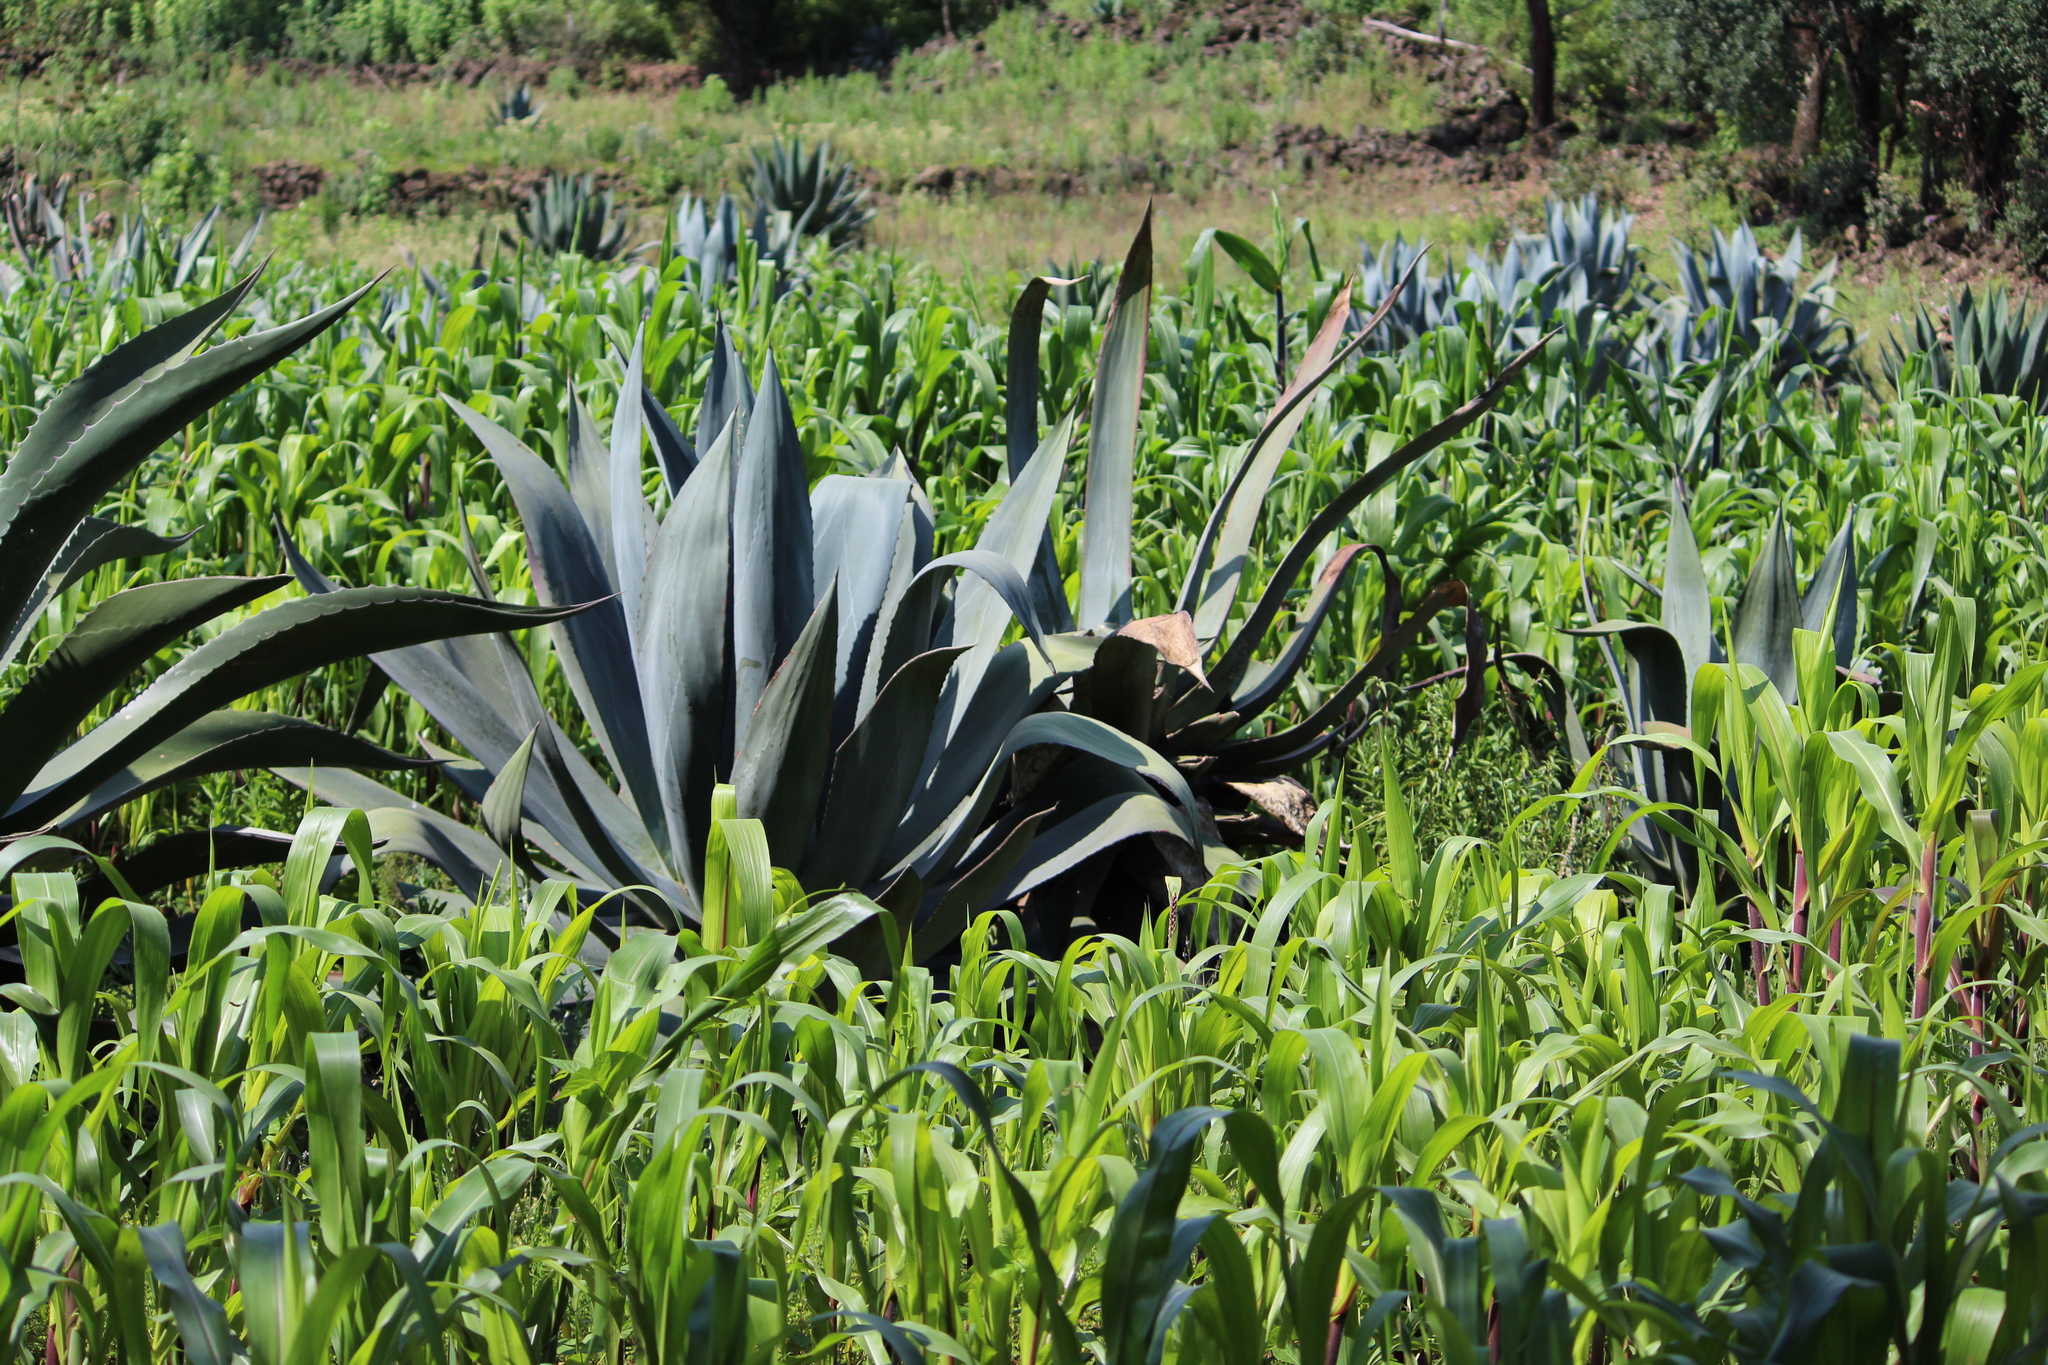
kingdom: Plantae
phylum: Tracheophyta
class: Liliopsida
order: Asparagales
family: Asparagaceae
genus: Agave
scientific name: Agave americana
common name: Centuryplant
